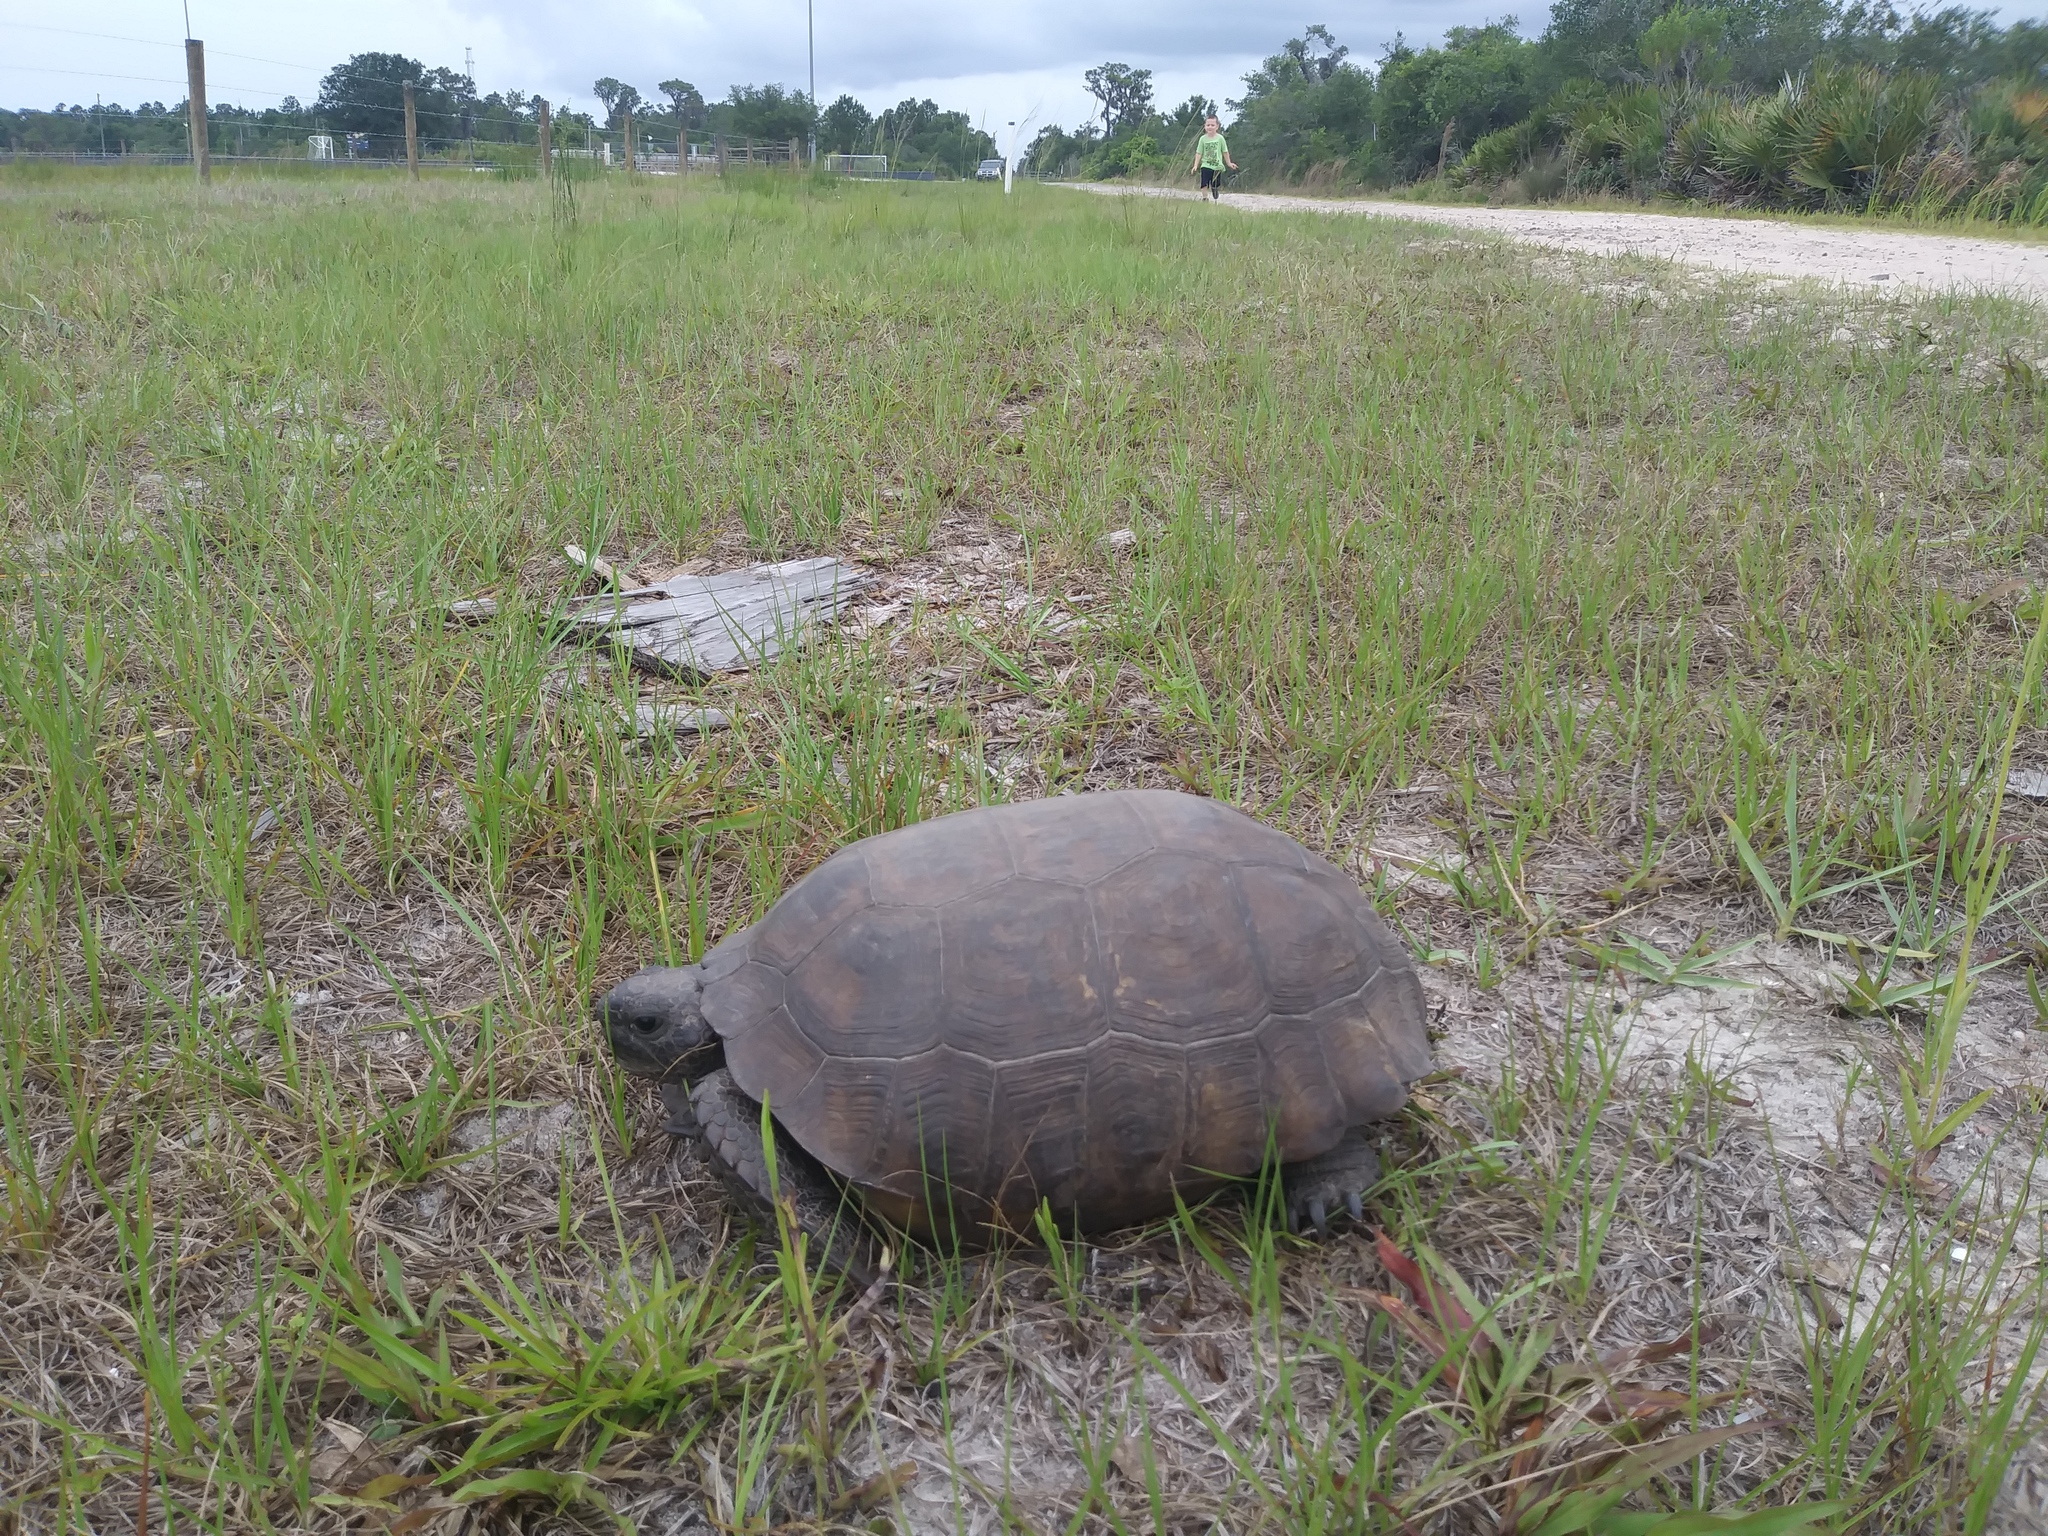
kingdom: Animalia
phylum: Chordata
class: Testudines
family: Testudinidae
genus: Gopherus
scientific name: Gopherus polyphemus
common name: Florida gopher tortoise
